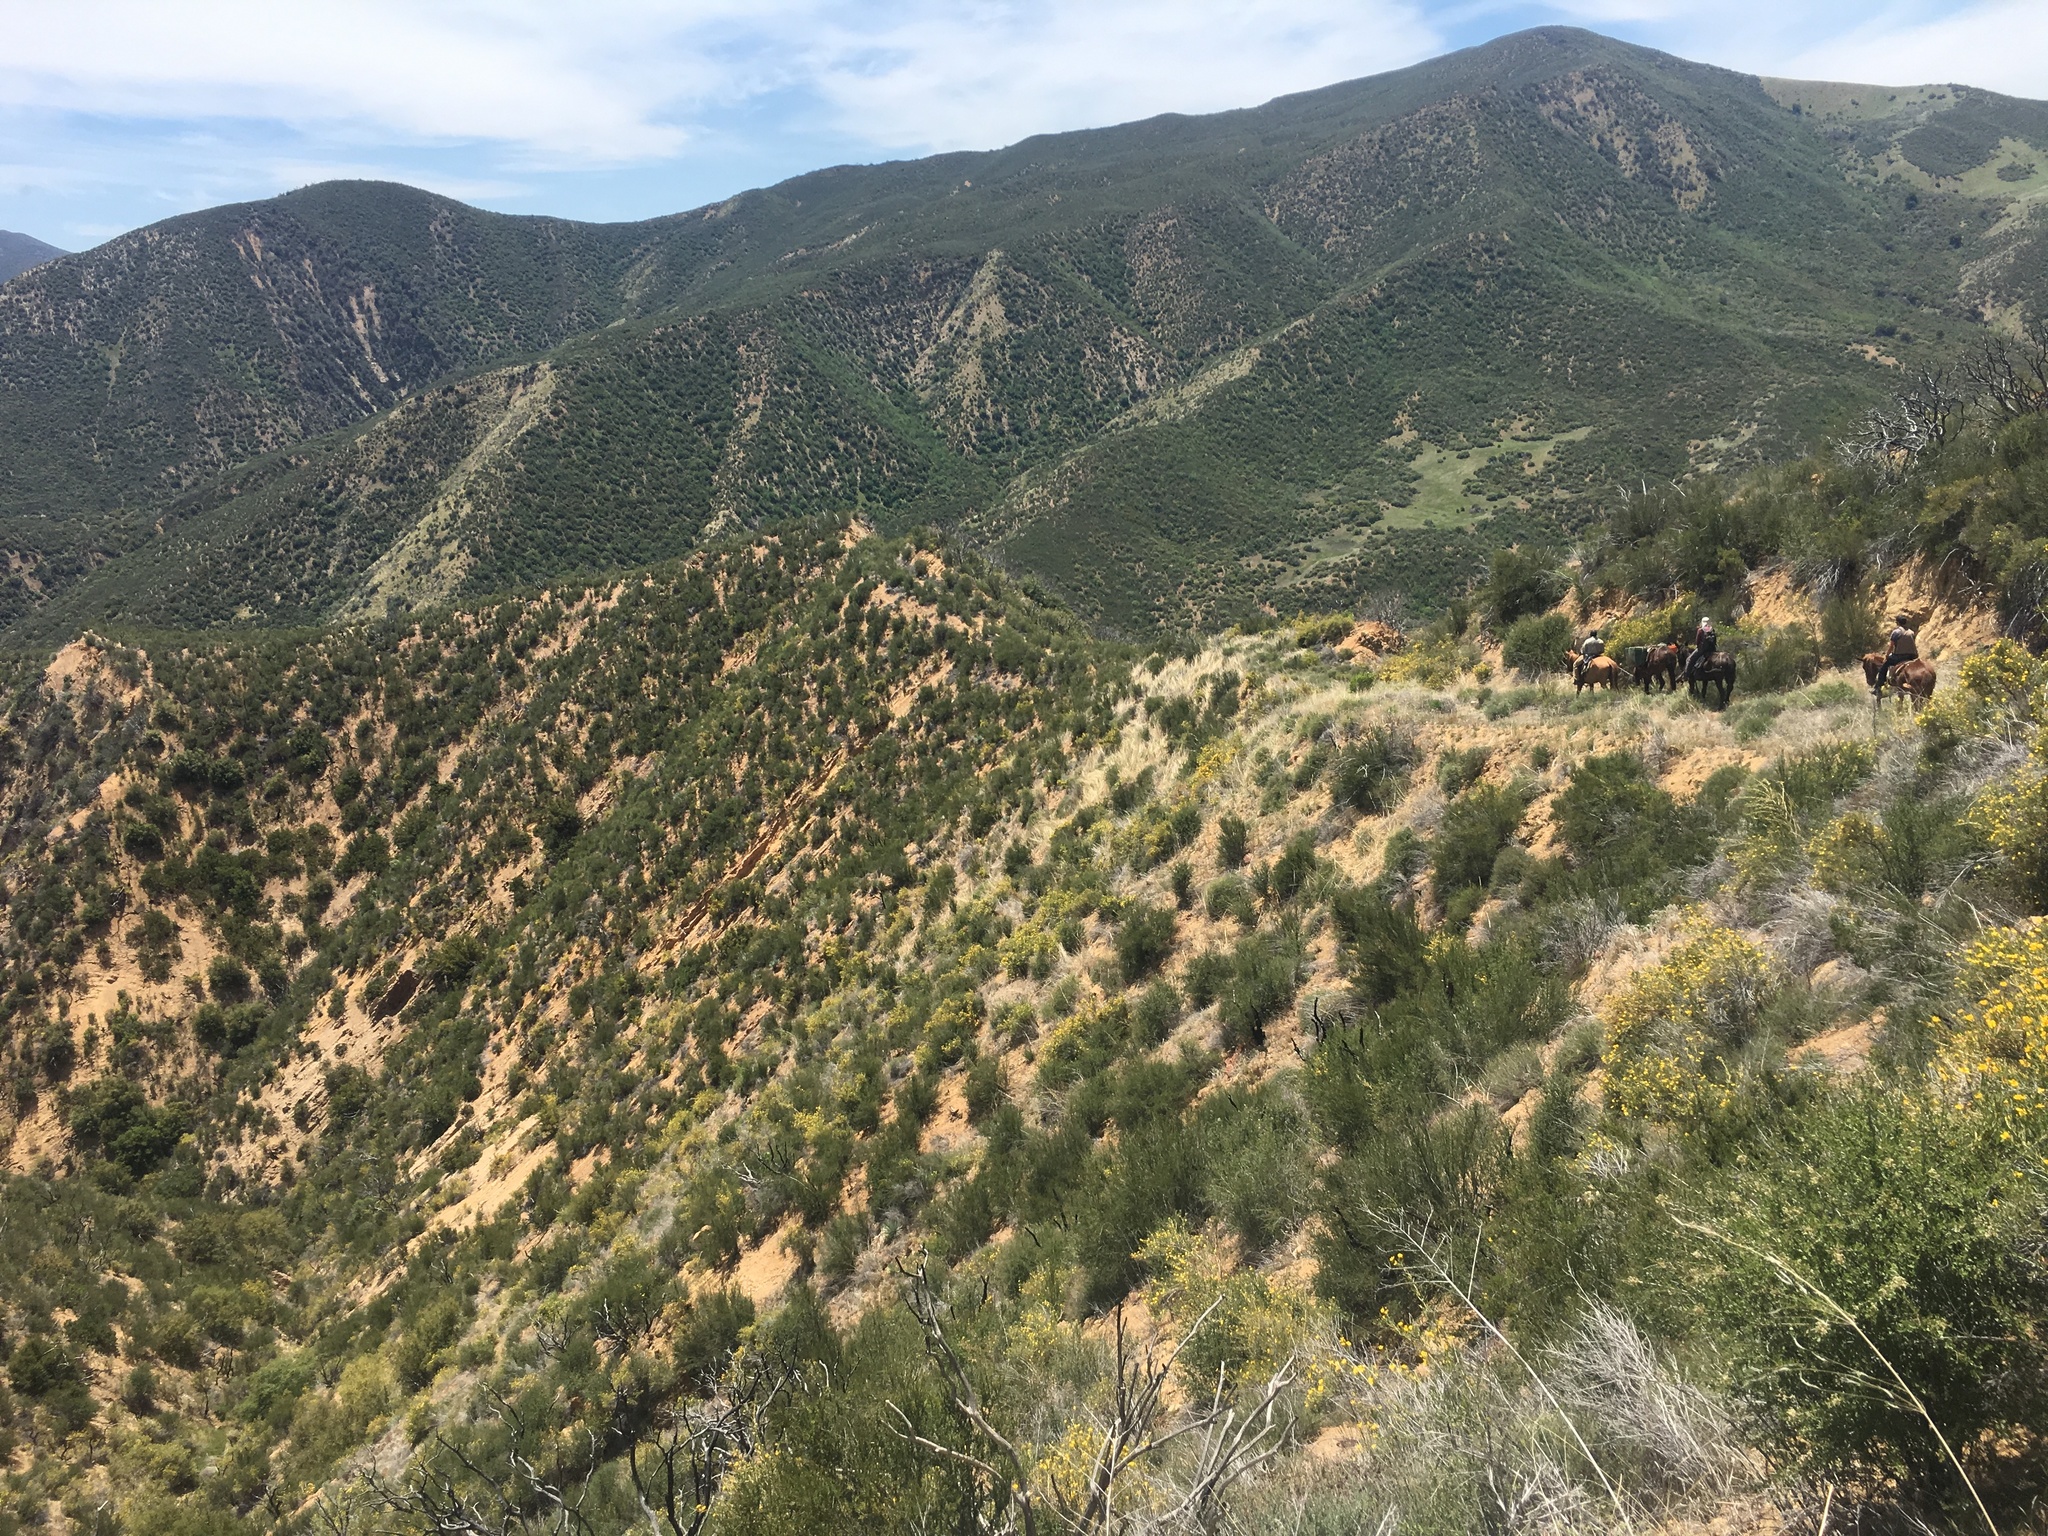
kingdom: Plantae
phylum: Tracheophyta
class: Magnoliopsida
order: Rosales
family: Rosaceae
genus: Adenostoma
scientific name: Adenostoma fasciculatum
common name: Chamise
